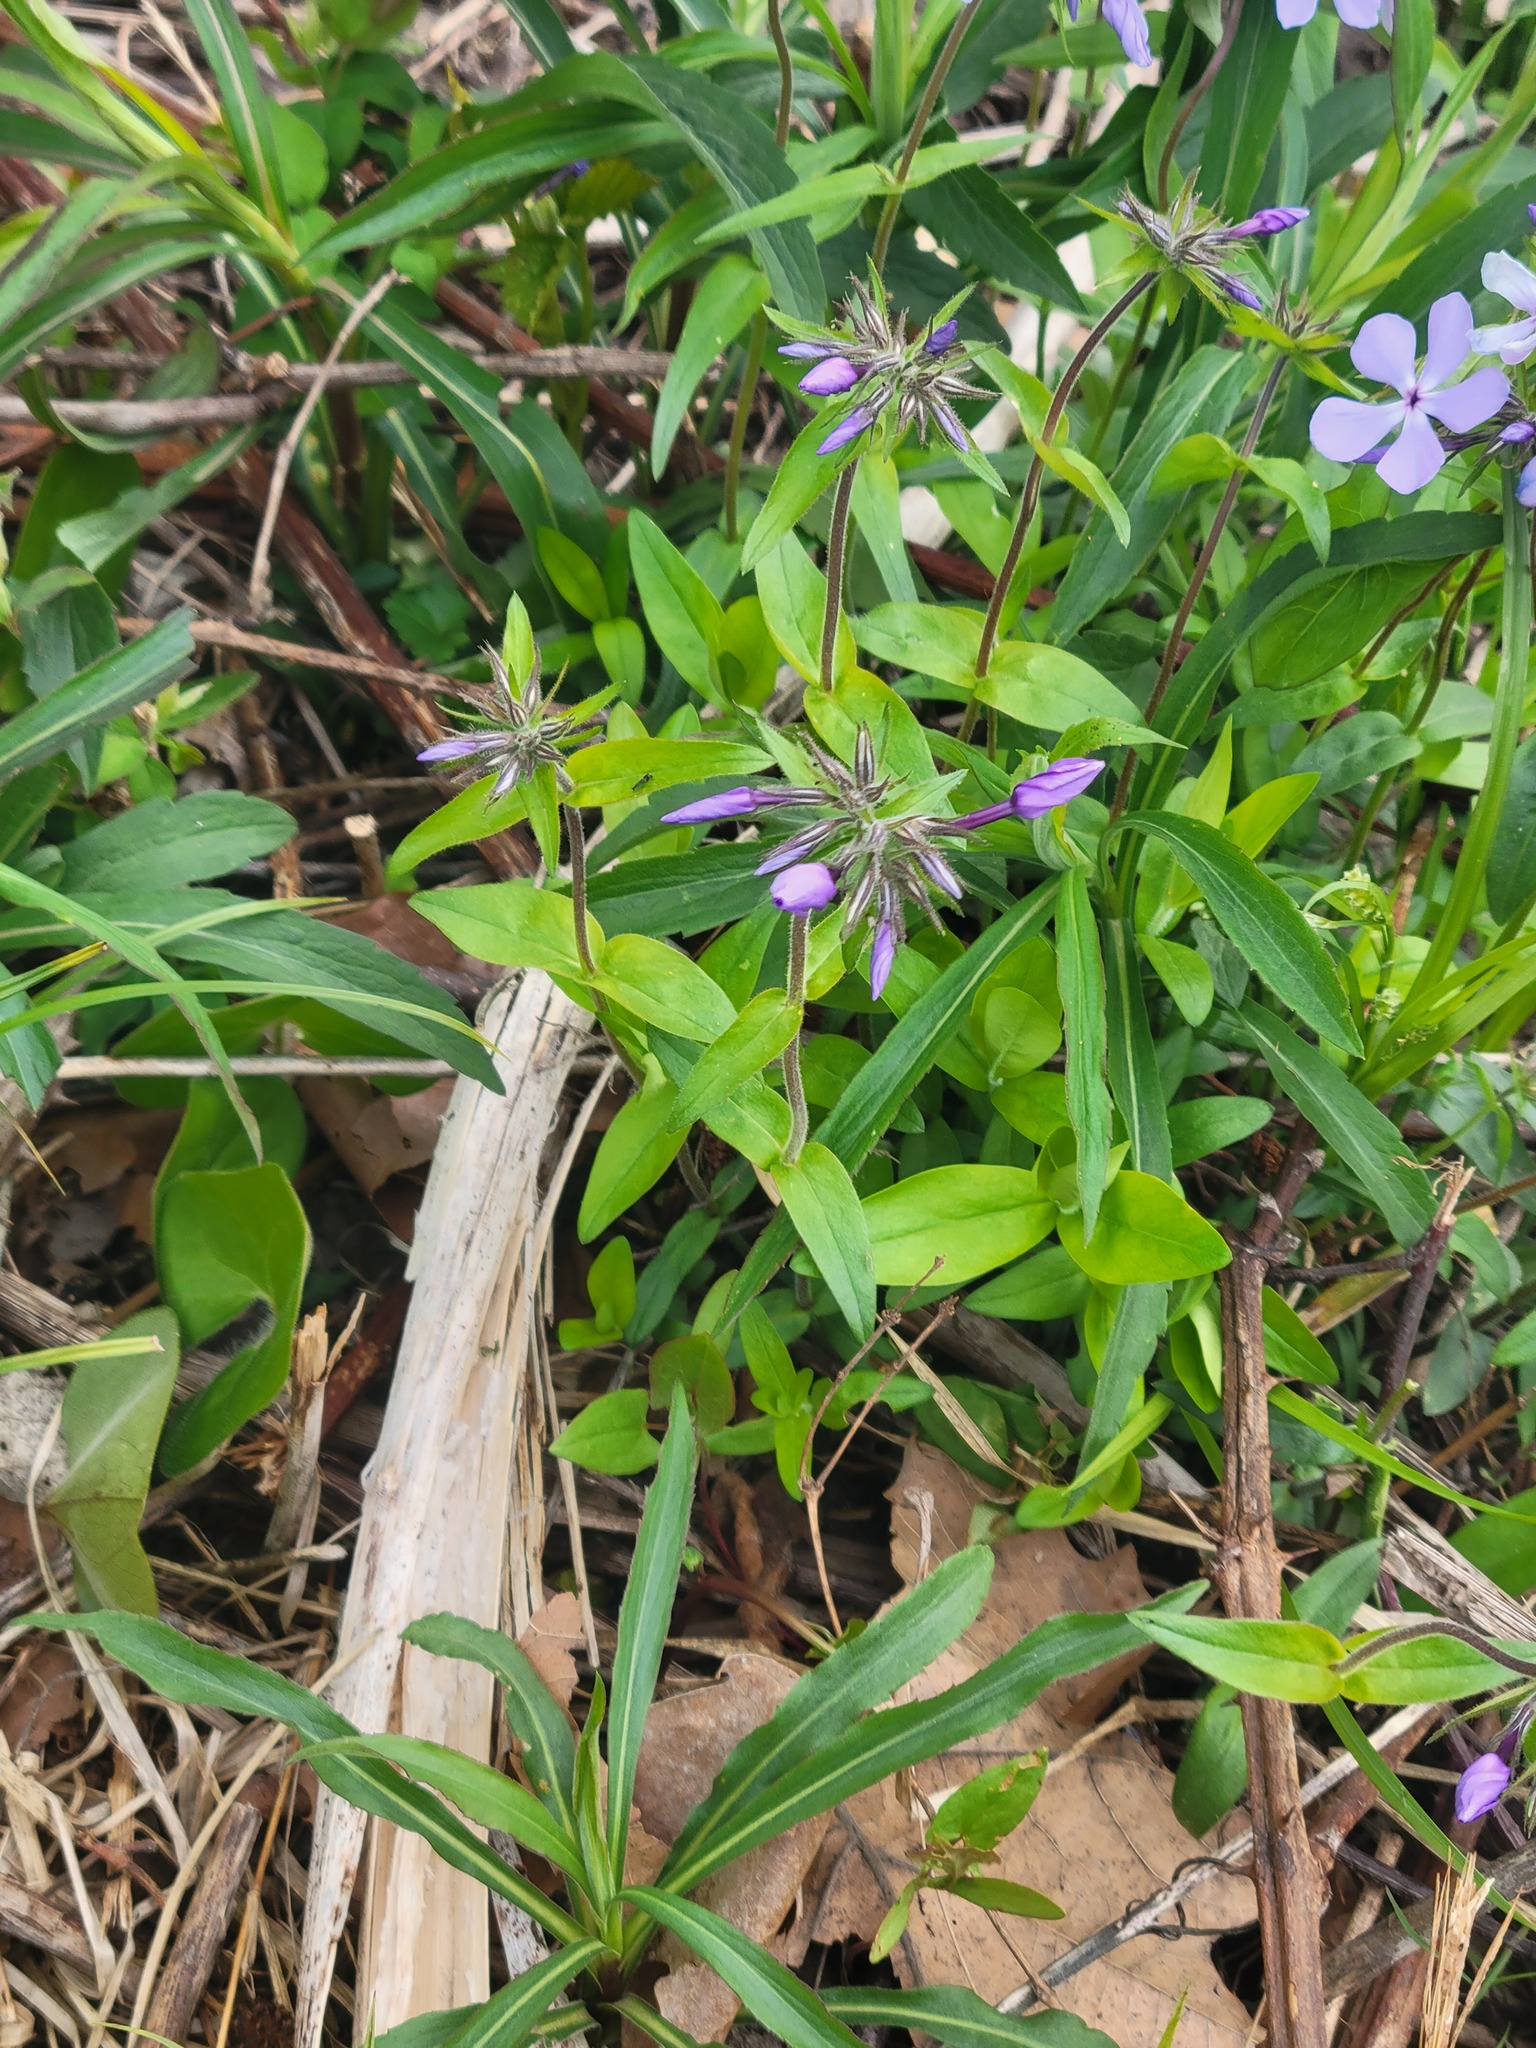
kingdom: Plantae
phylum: Tracheophyta
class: Magnoliopsida
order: Ericales
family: Polemoniaceae
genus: Phlox
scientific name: Phlox divaricata
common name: Blue phlox
